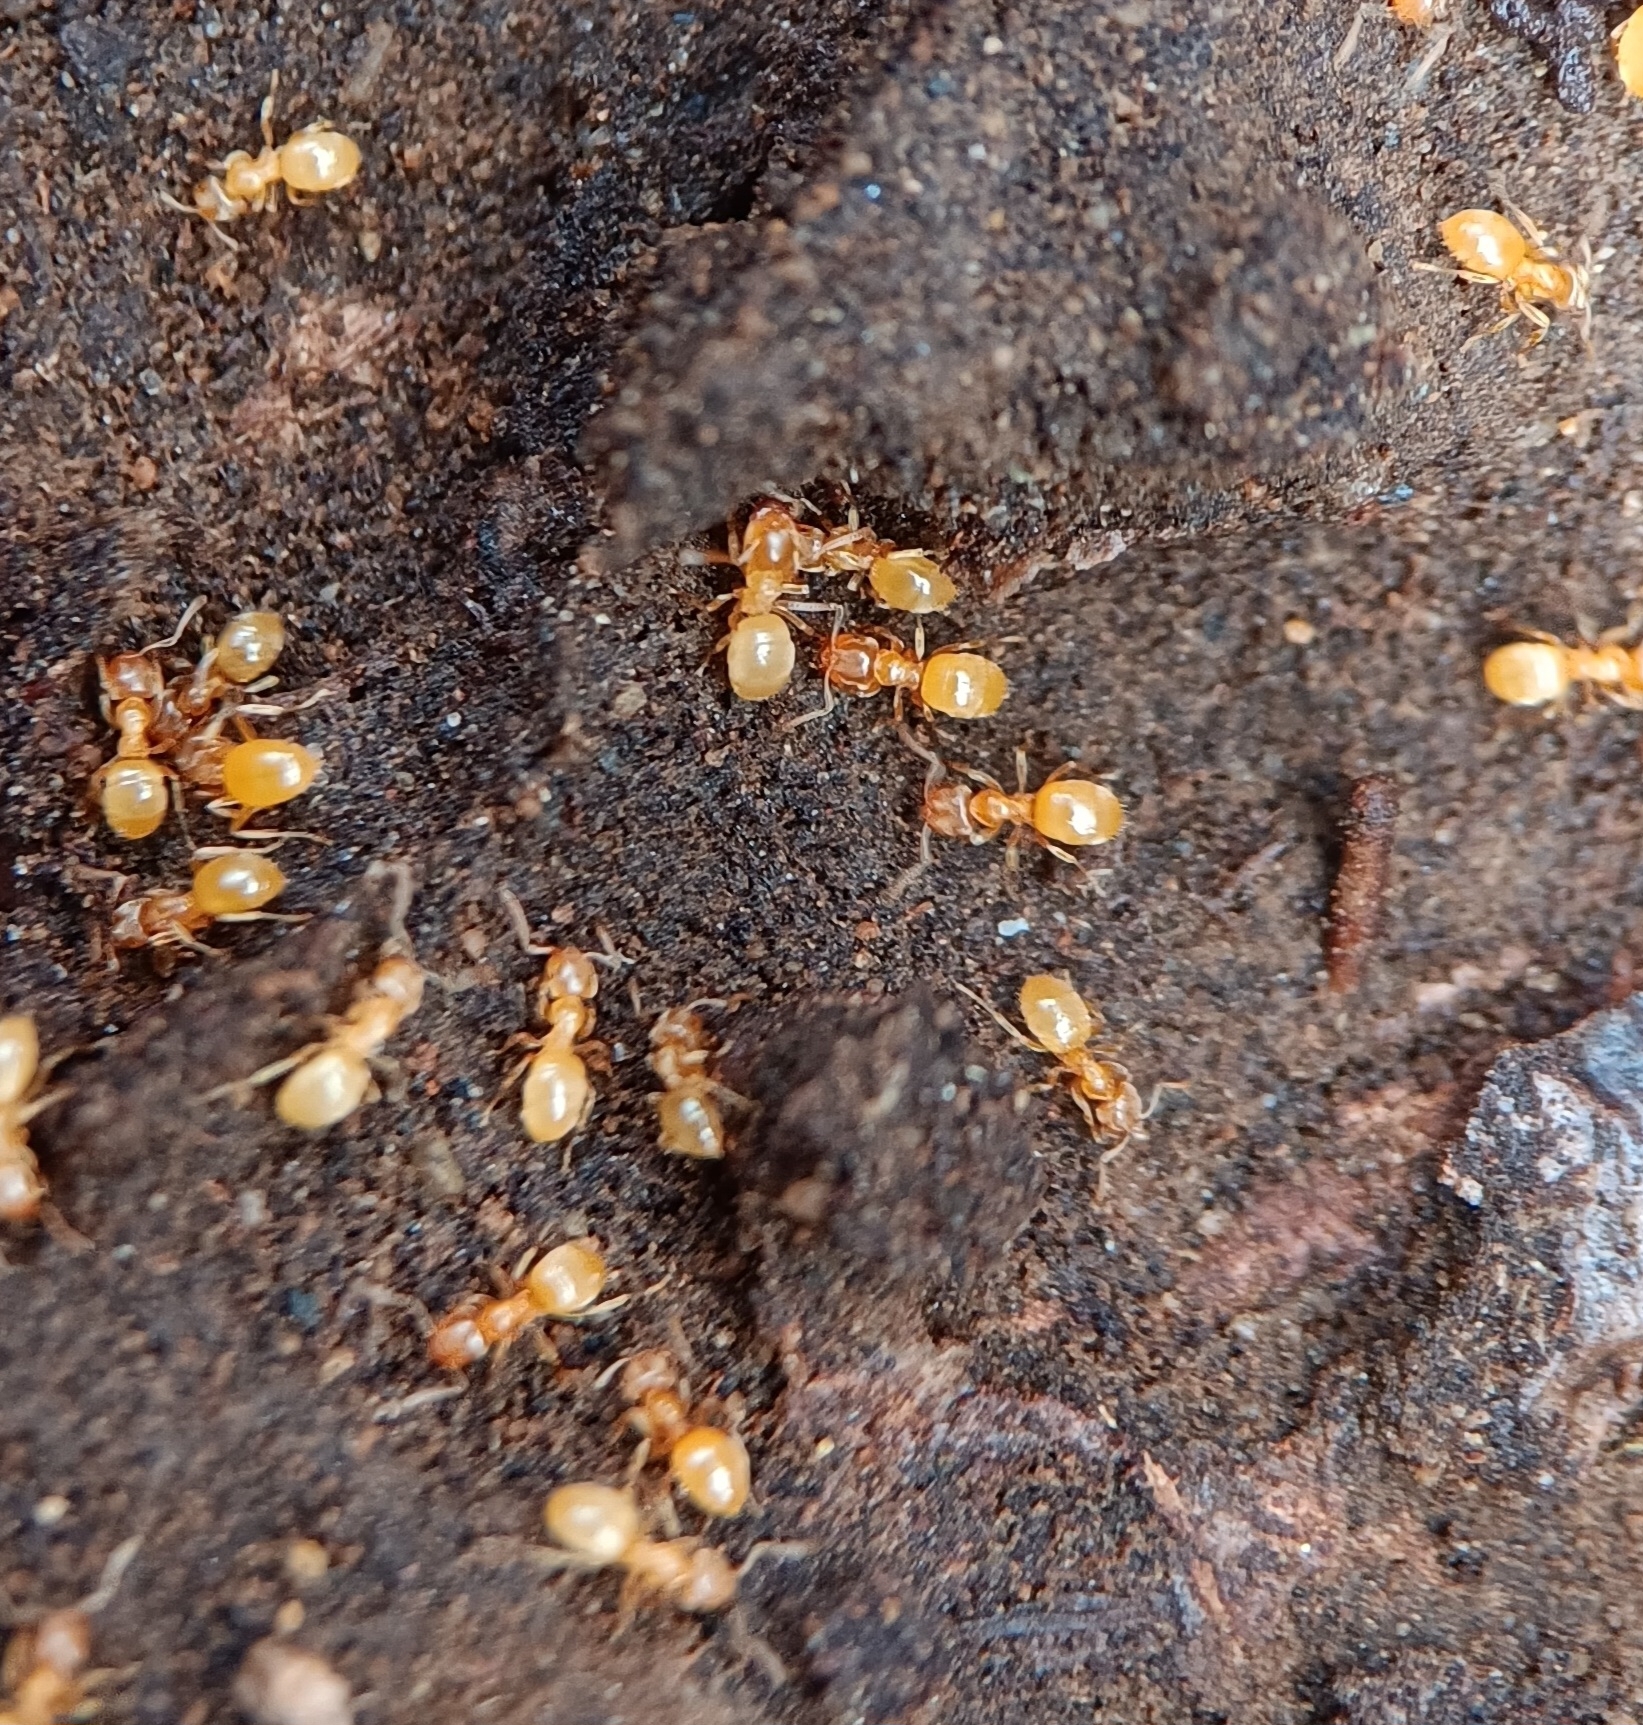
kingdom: Animalia
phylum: Arthropoda
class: Insecta
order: Hymenoptera
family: Formicidae
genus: Lasius
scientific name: Lasius nearcticus
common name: New world fuzzy ant
